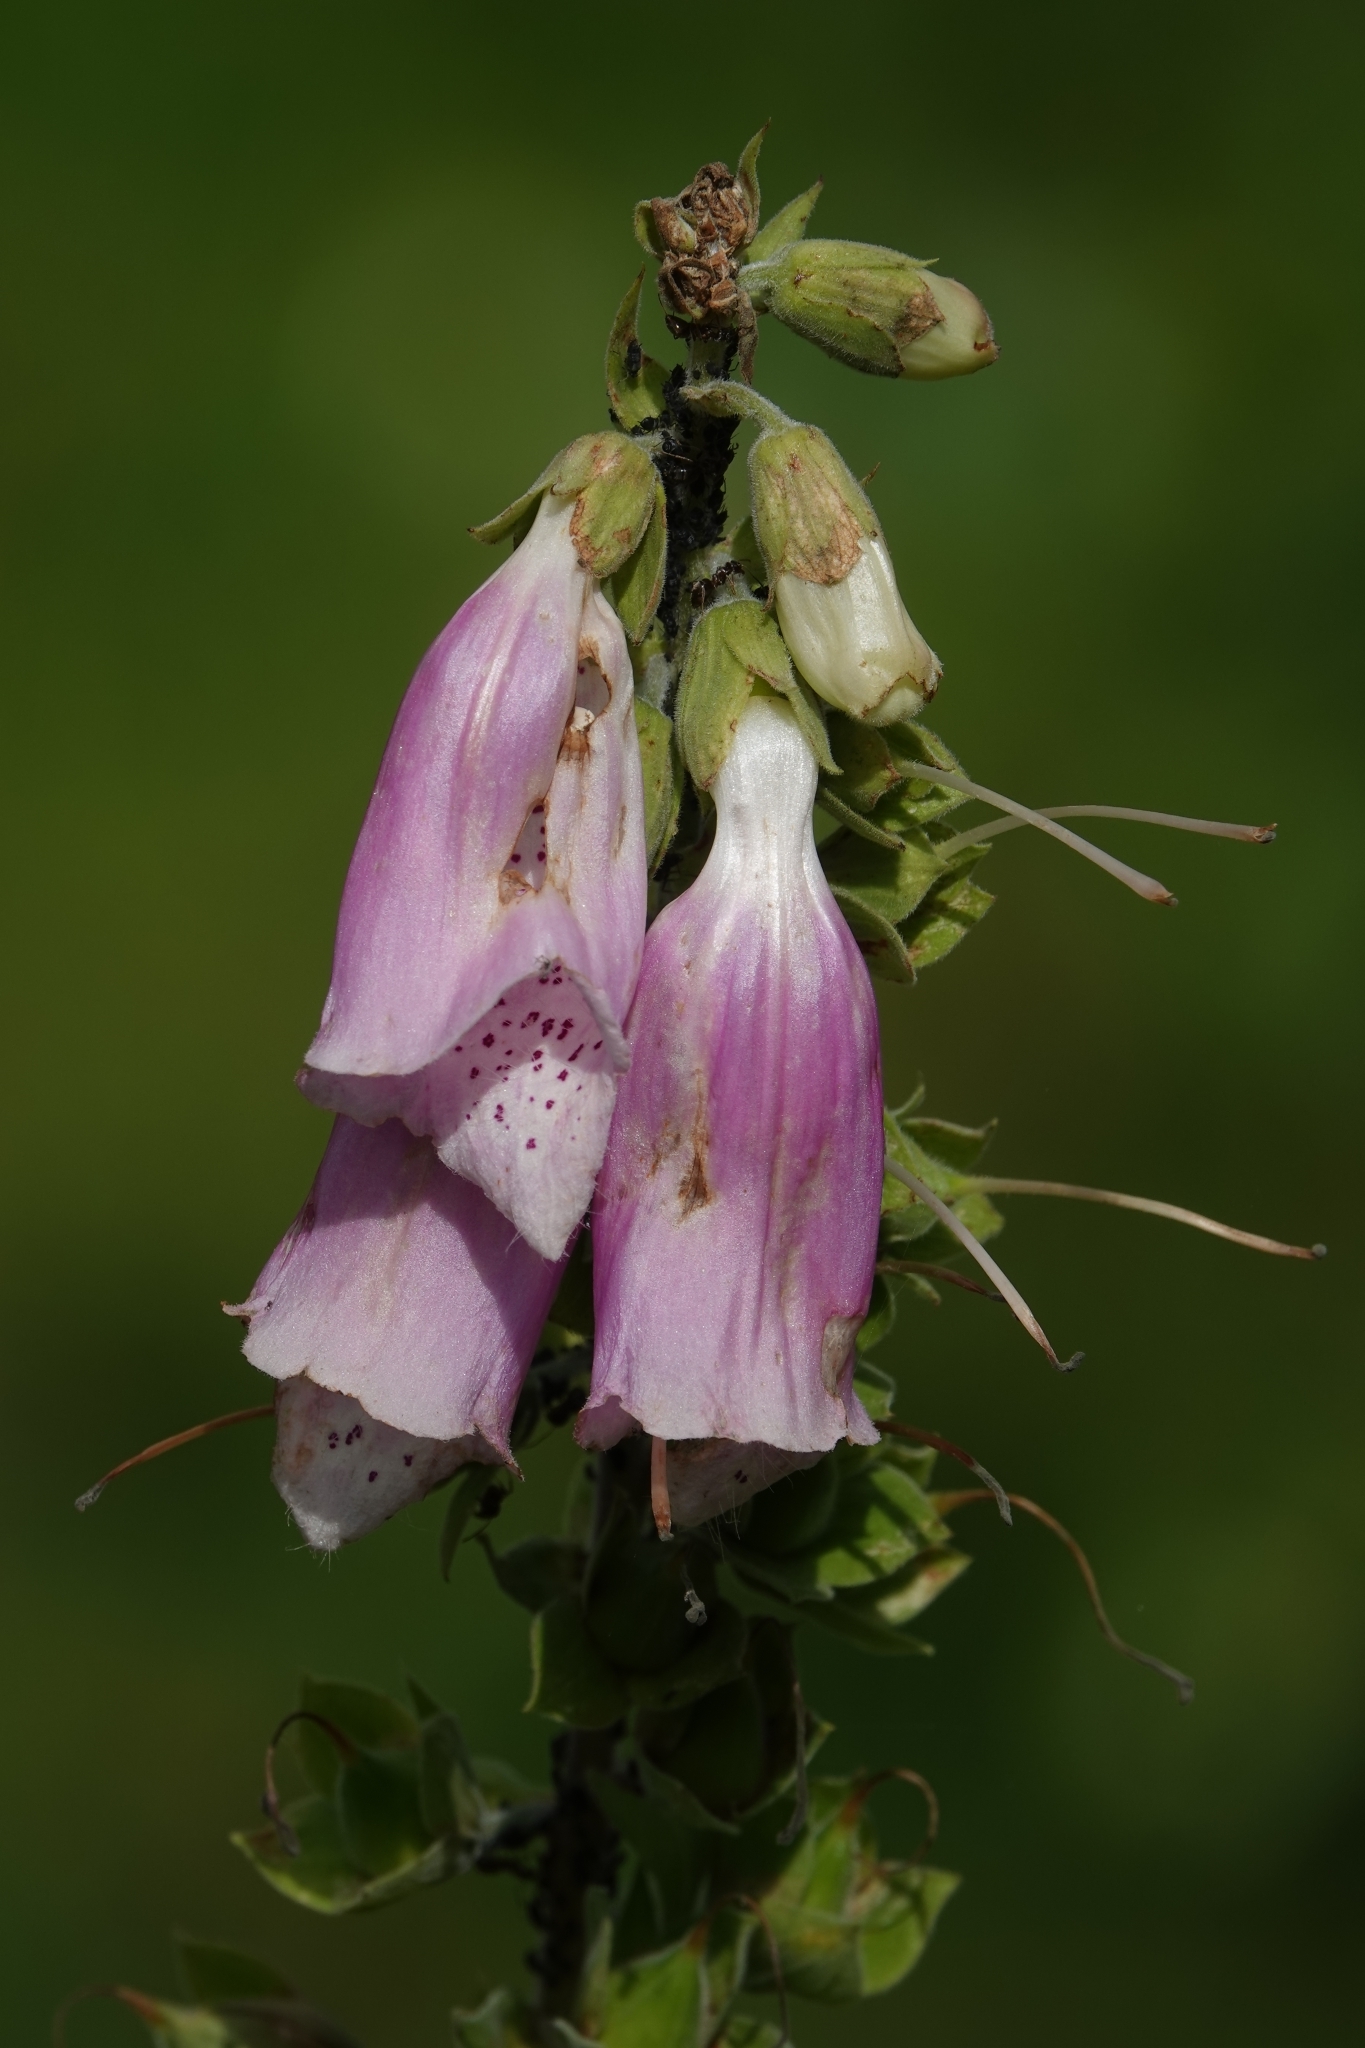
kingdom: Plantae
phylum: Tracheophyta
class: Magnoliopsida
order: Lamiales
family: Plantaginaceae
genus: Digitalis
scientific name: Digitalis purpurea
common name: Foxglove
